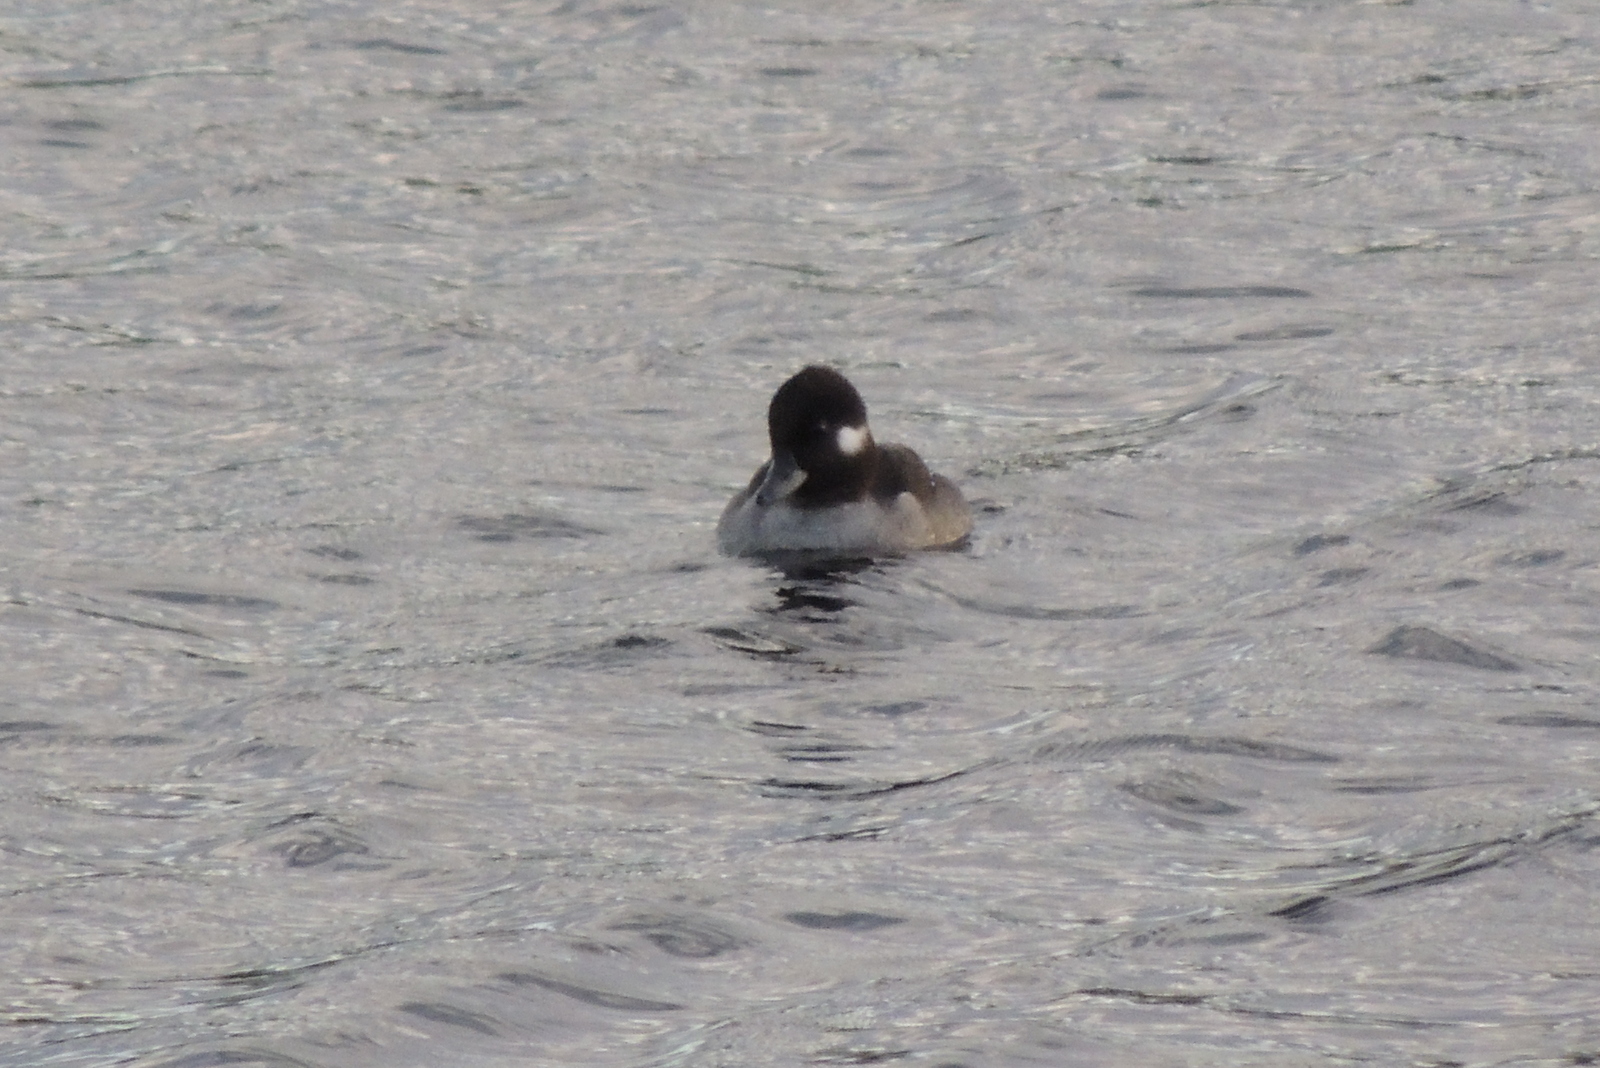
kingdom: Animalia
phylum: Chordata
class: Aves
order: Anseriformes
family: Anatidae
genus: Bucephala
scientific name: Bucephala albeola
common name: Bufflehead
